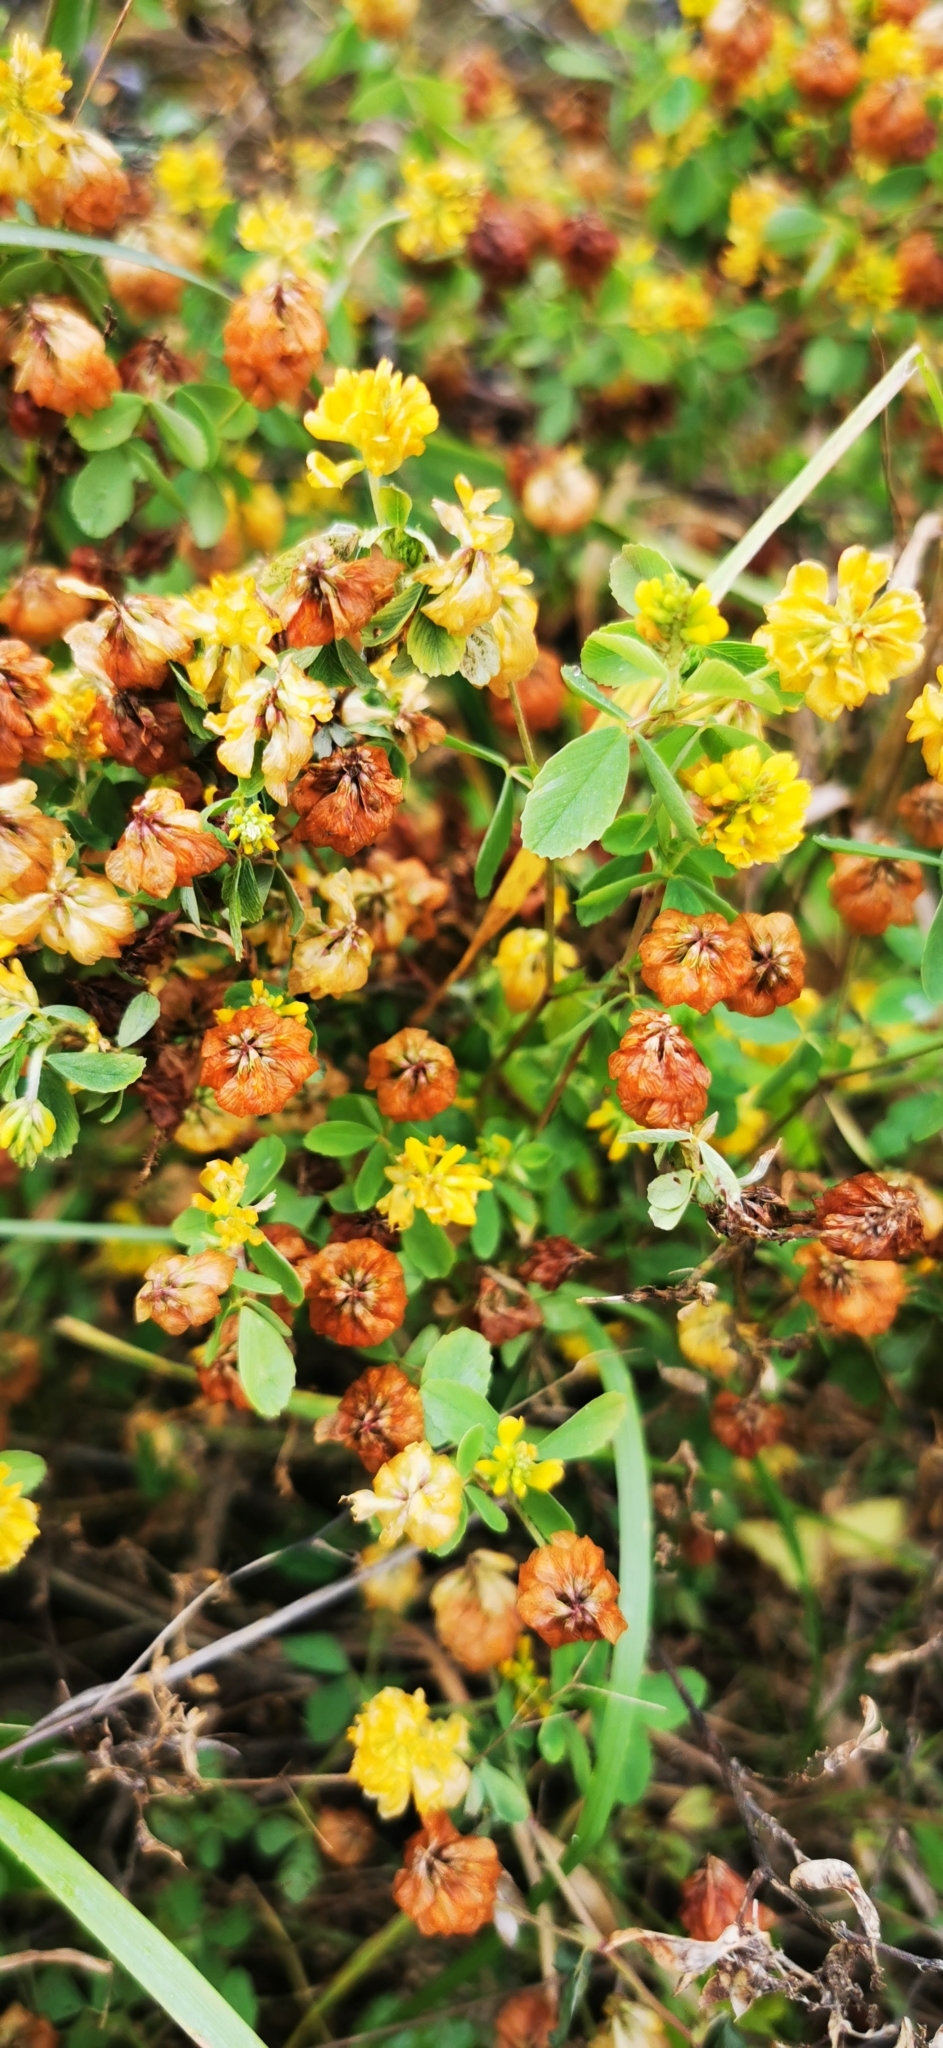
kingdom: Plantae
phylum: Tracheophyta
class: Magnoliopsida
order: Fabales
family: Fabaceae
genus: Trifolium
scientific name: Trifolium aureum
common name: Golden clover
